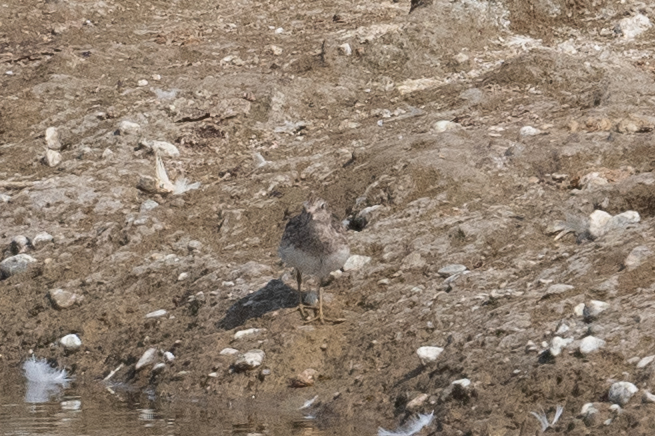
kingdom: Animalia
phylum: Chordata
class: Aves
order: Charadriiformes
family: Scolopacidae
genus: Calidris
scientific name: Calidris minutilla
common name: Least sandpiper
